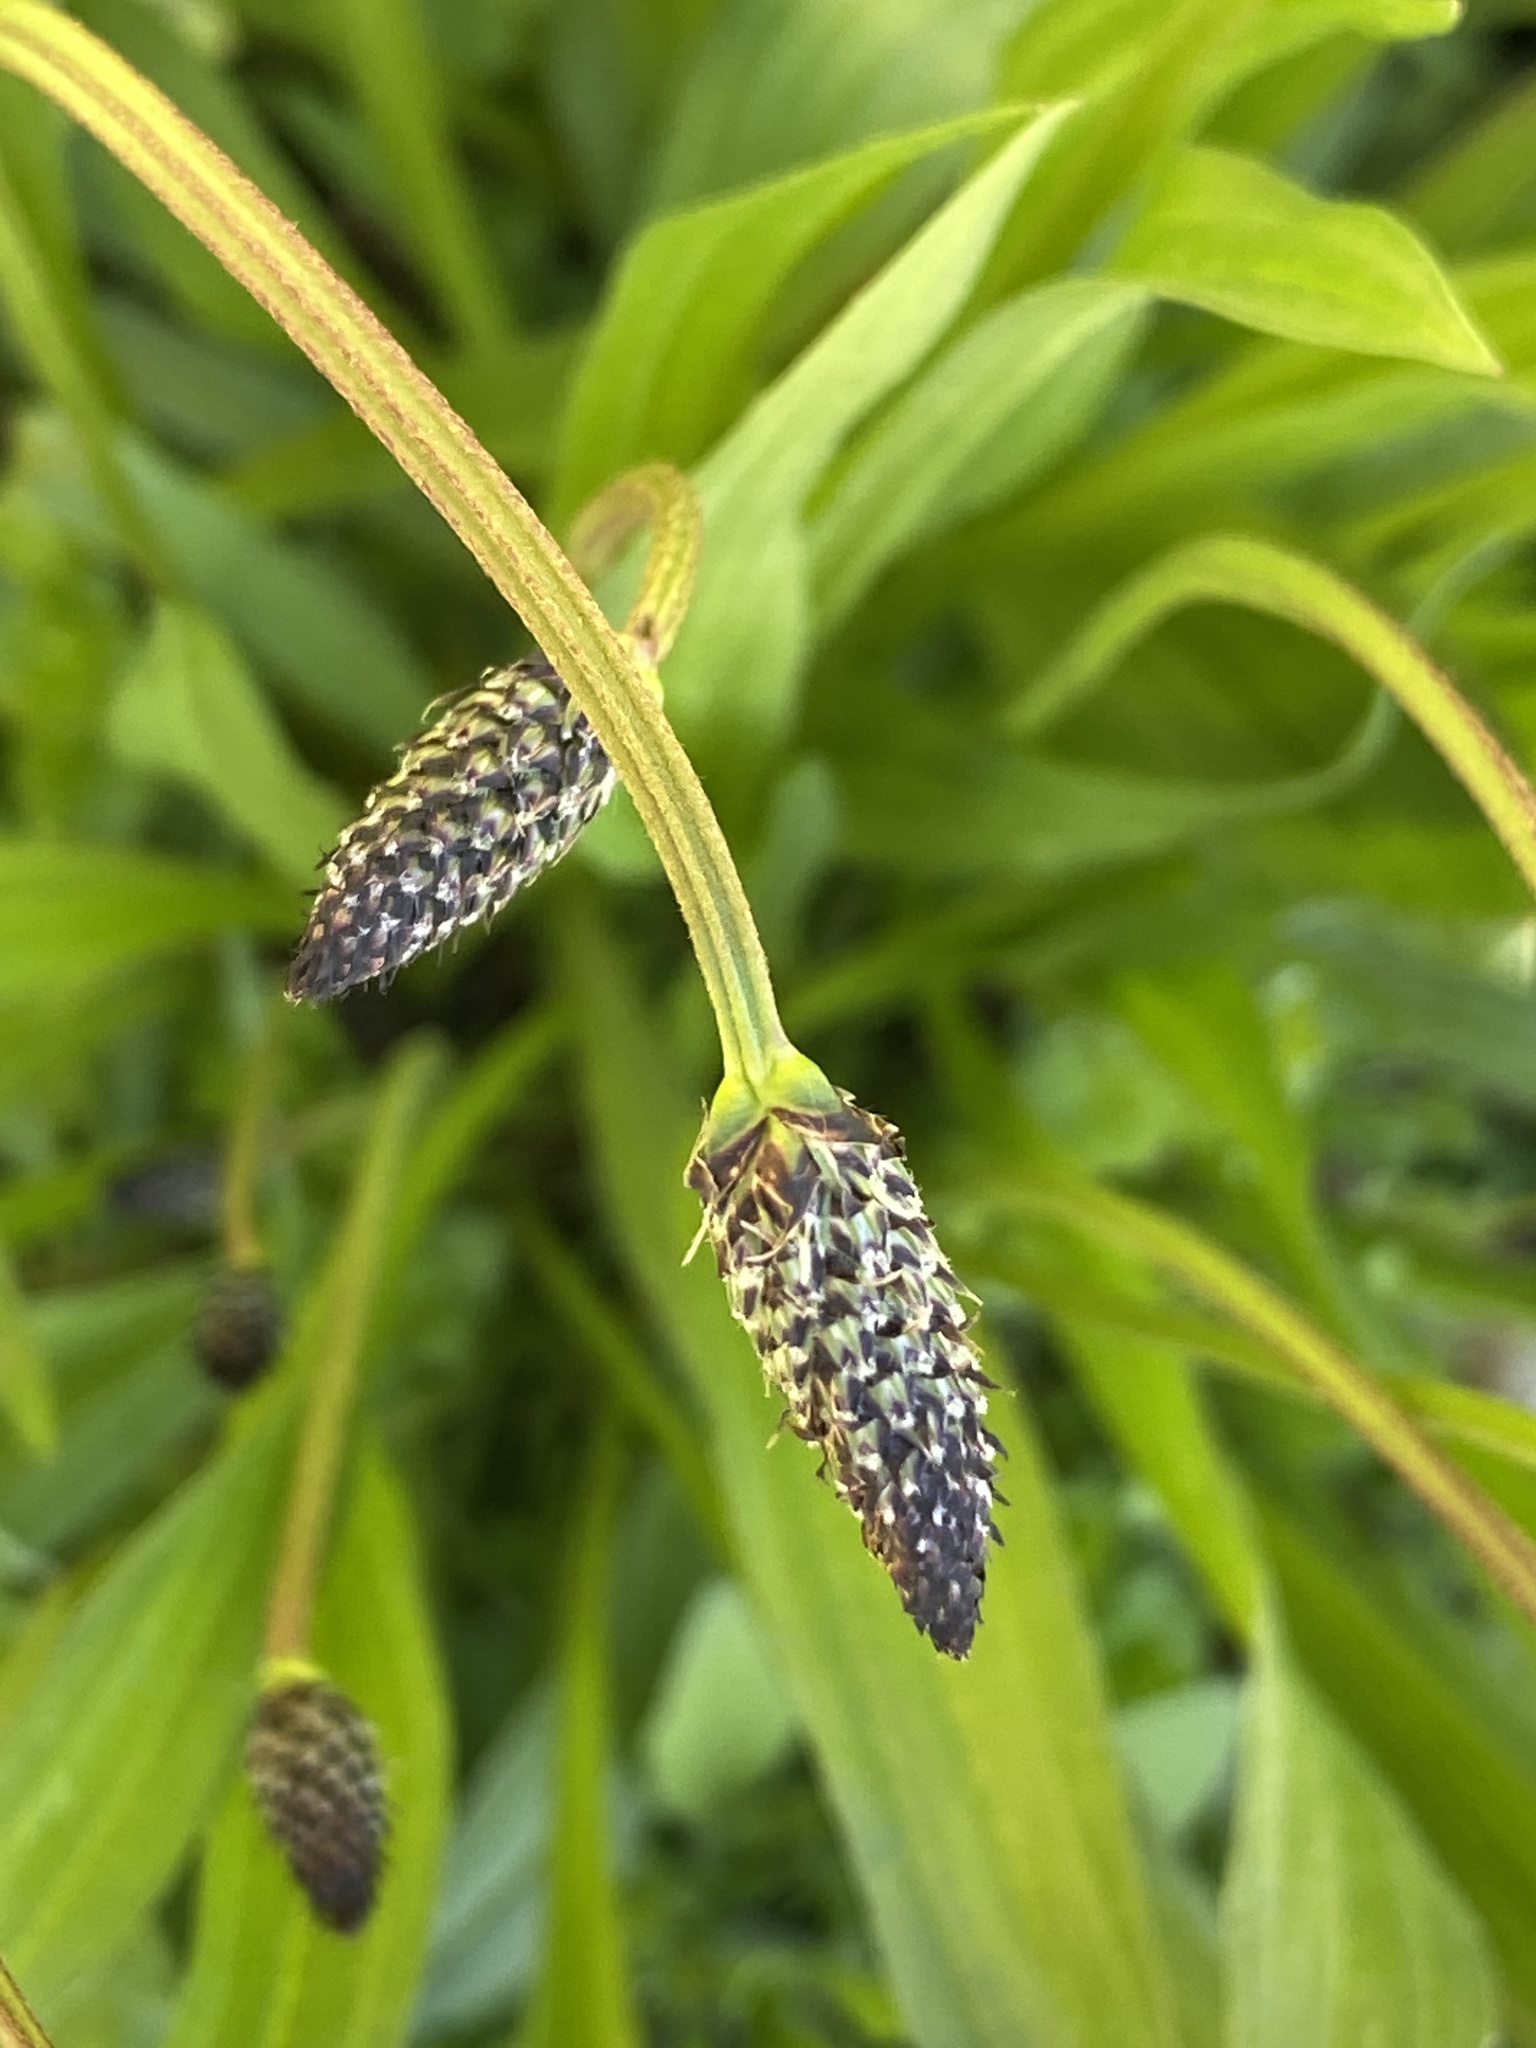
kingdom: Plantae
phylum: Tracheophyta
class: Magnoliopsida
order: Lamiales
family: Plantaginaceae
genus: Plantago
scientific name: Plantago lanceolata
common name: Ribwort plantain
